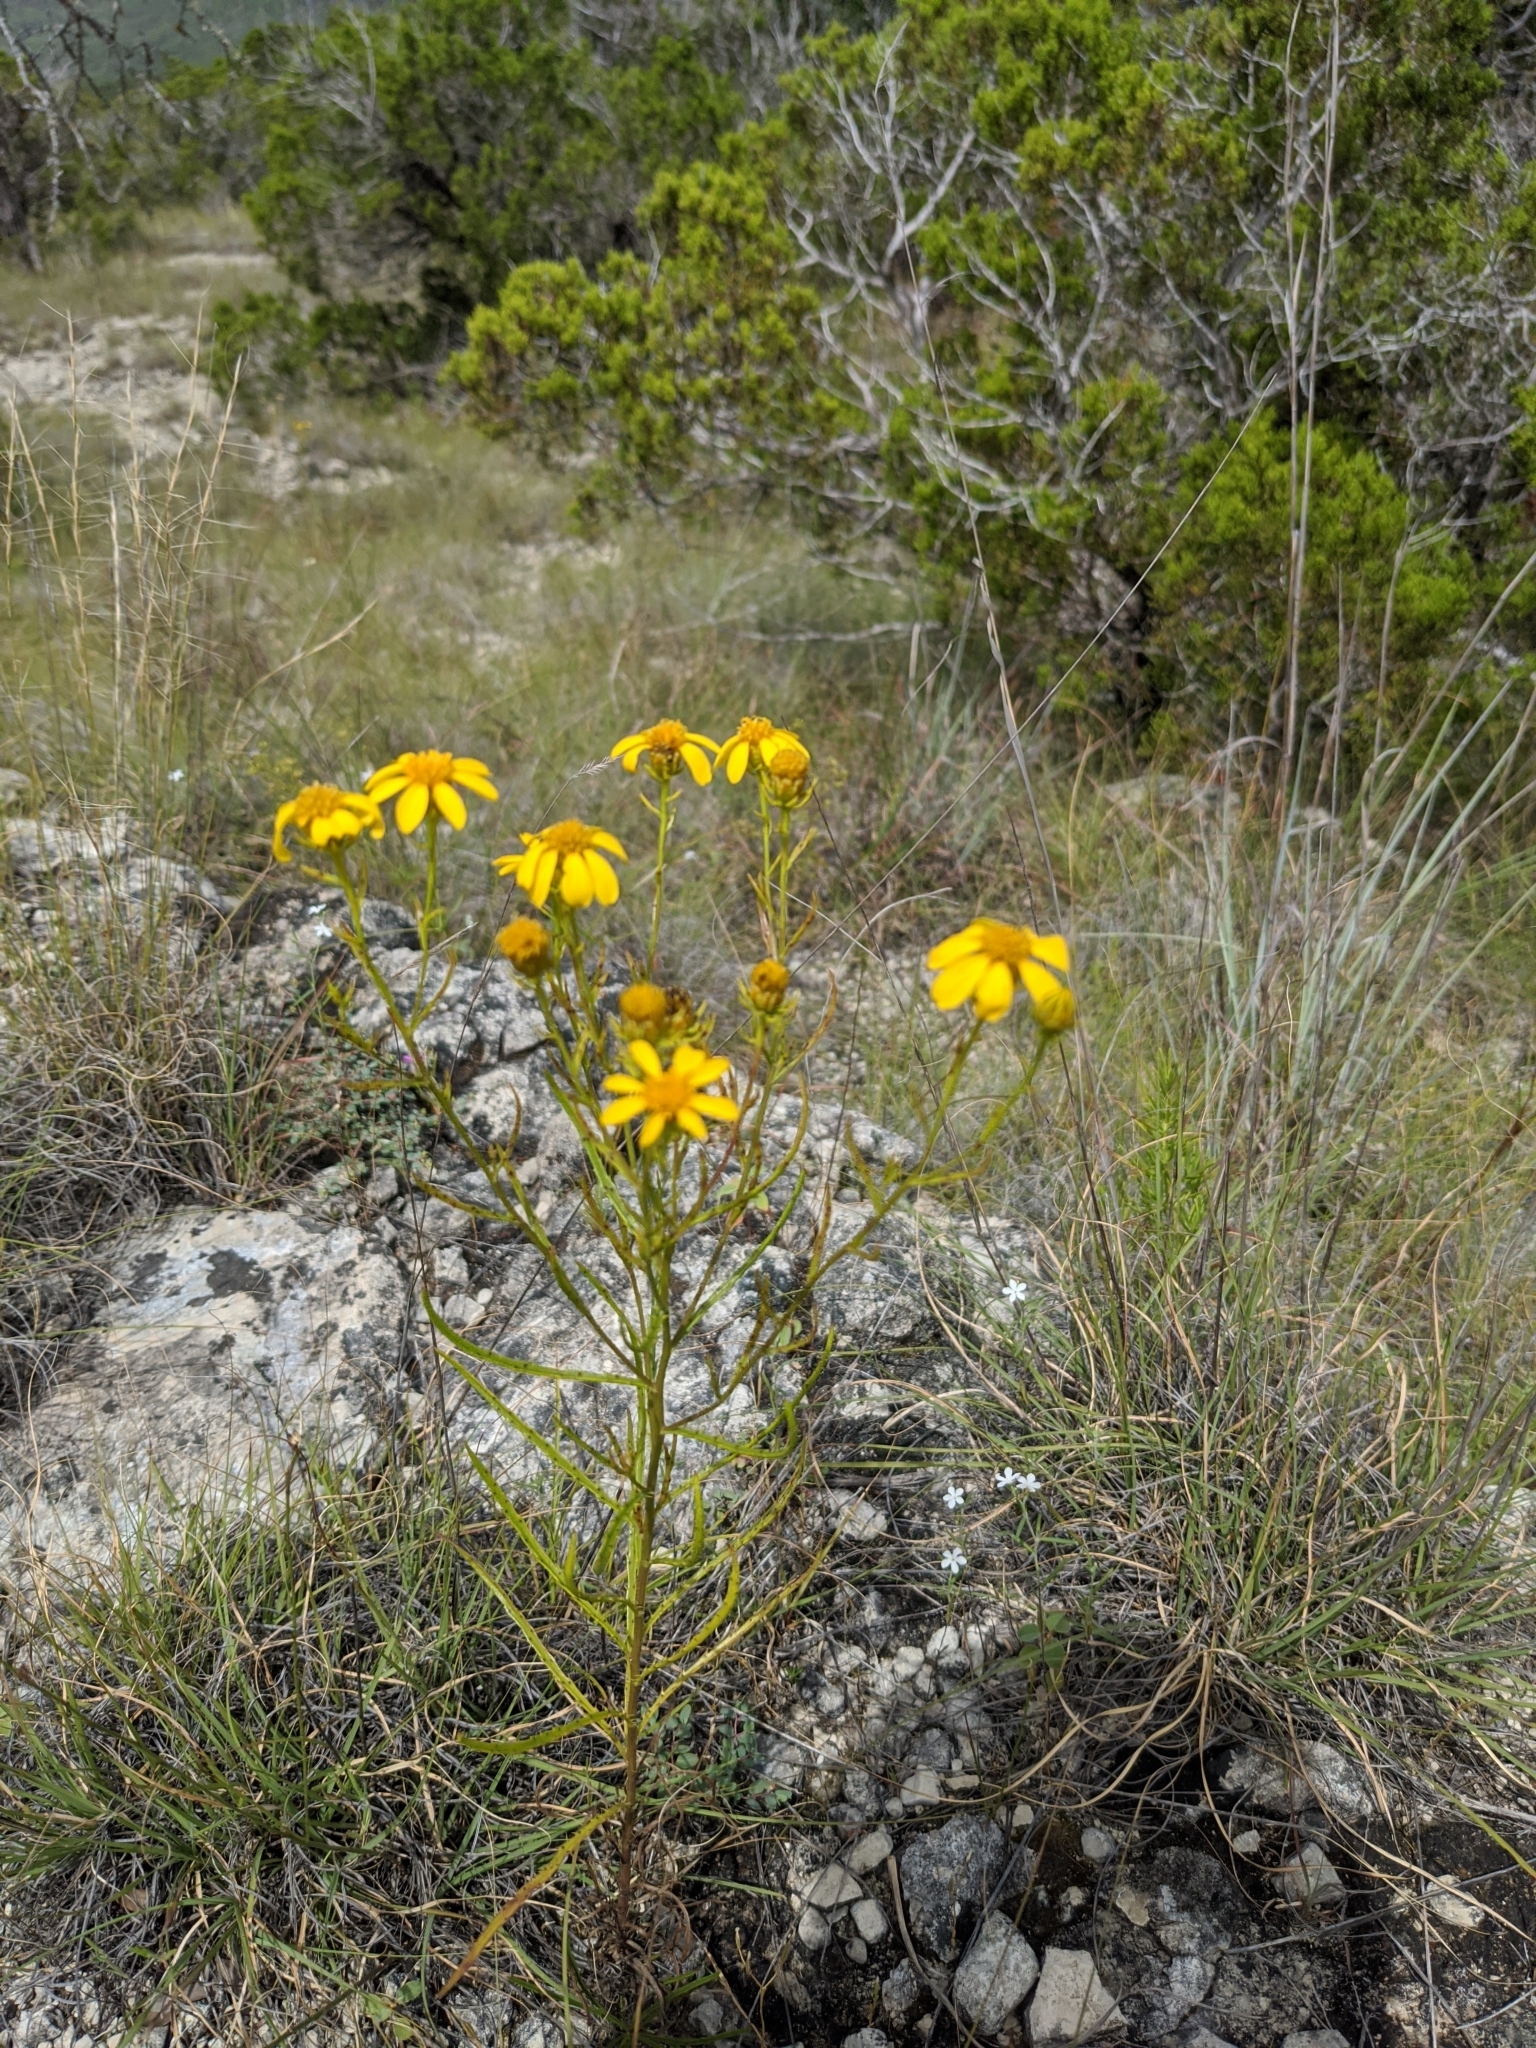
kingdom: Plantae
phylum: Tracheophyta
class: Magnoliopsida
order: Asterales
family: Asteraceae
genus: Dysodiopsis
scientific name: Dysodiopsis tagetoides
